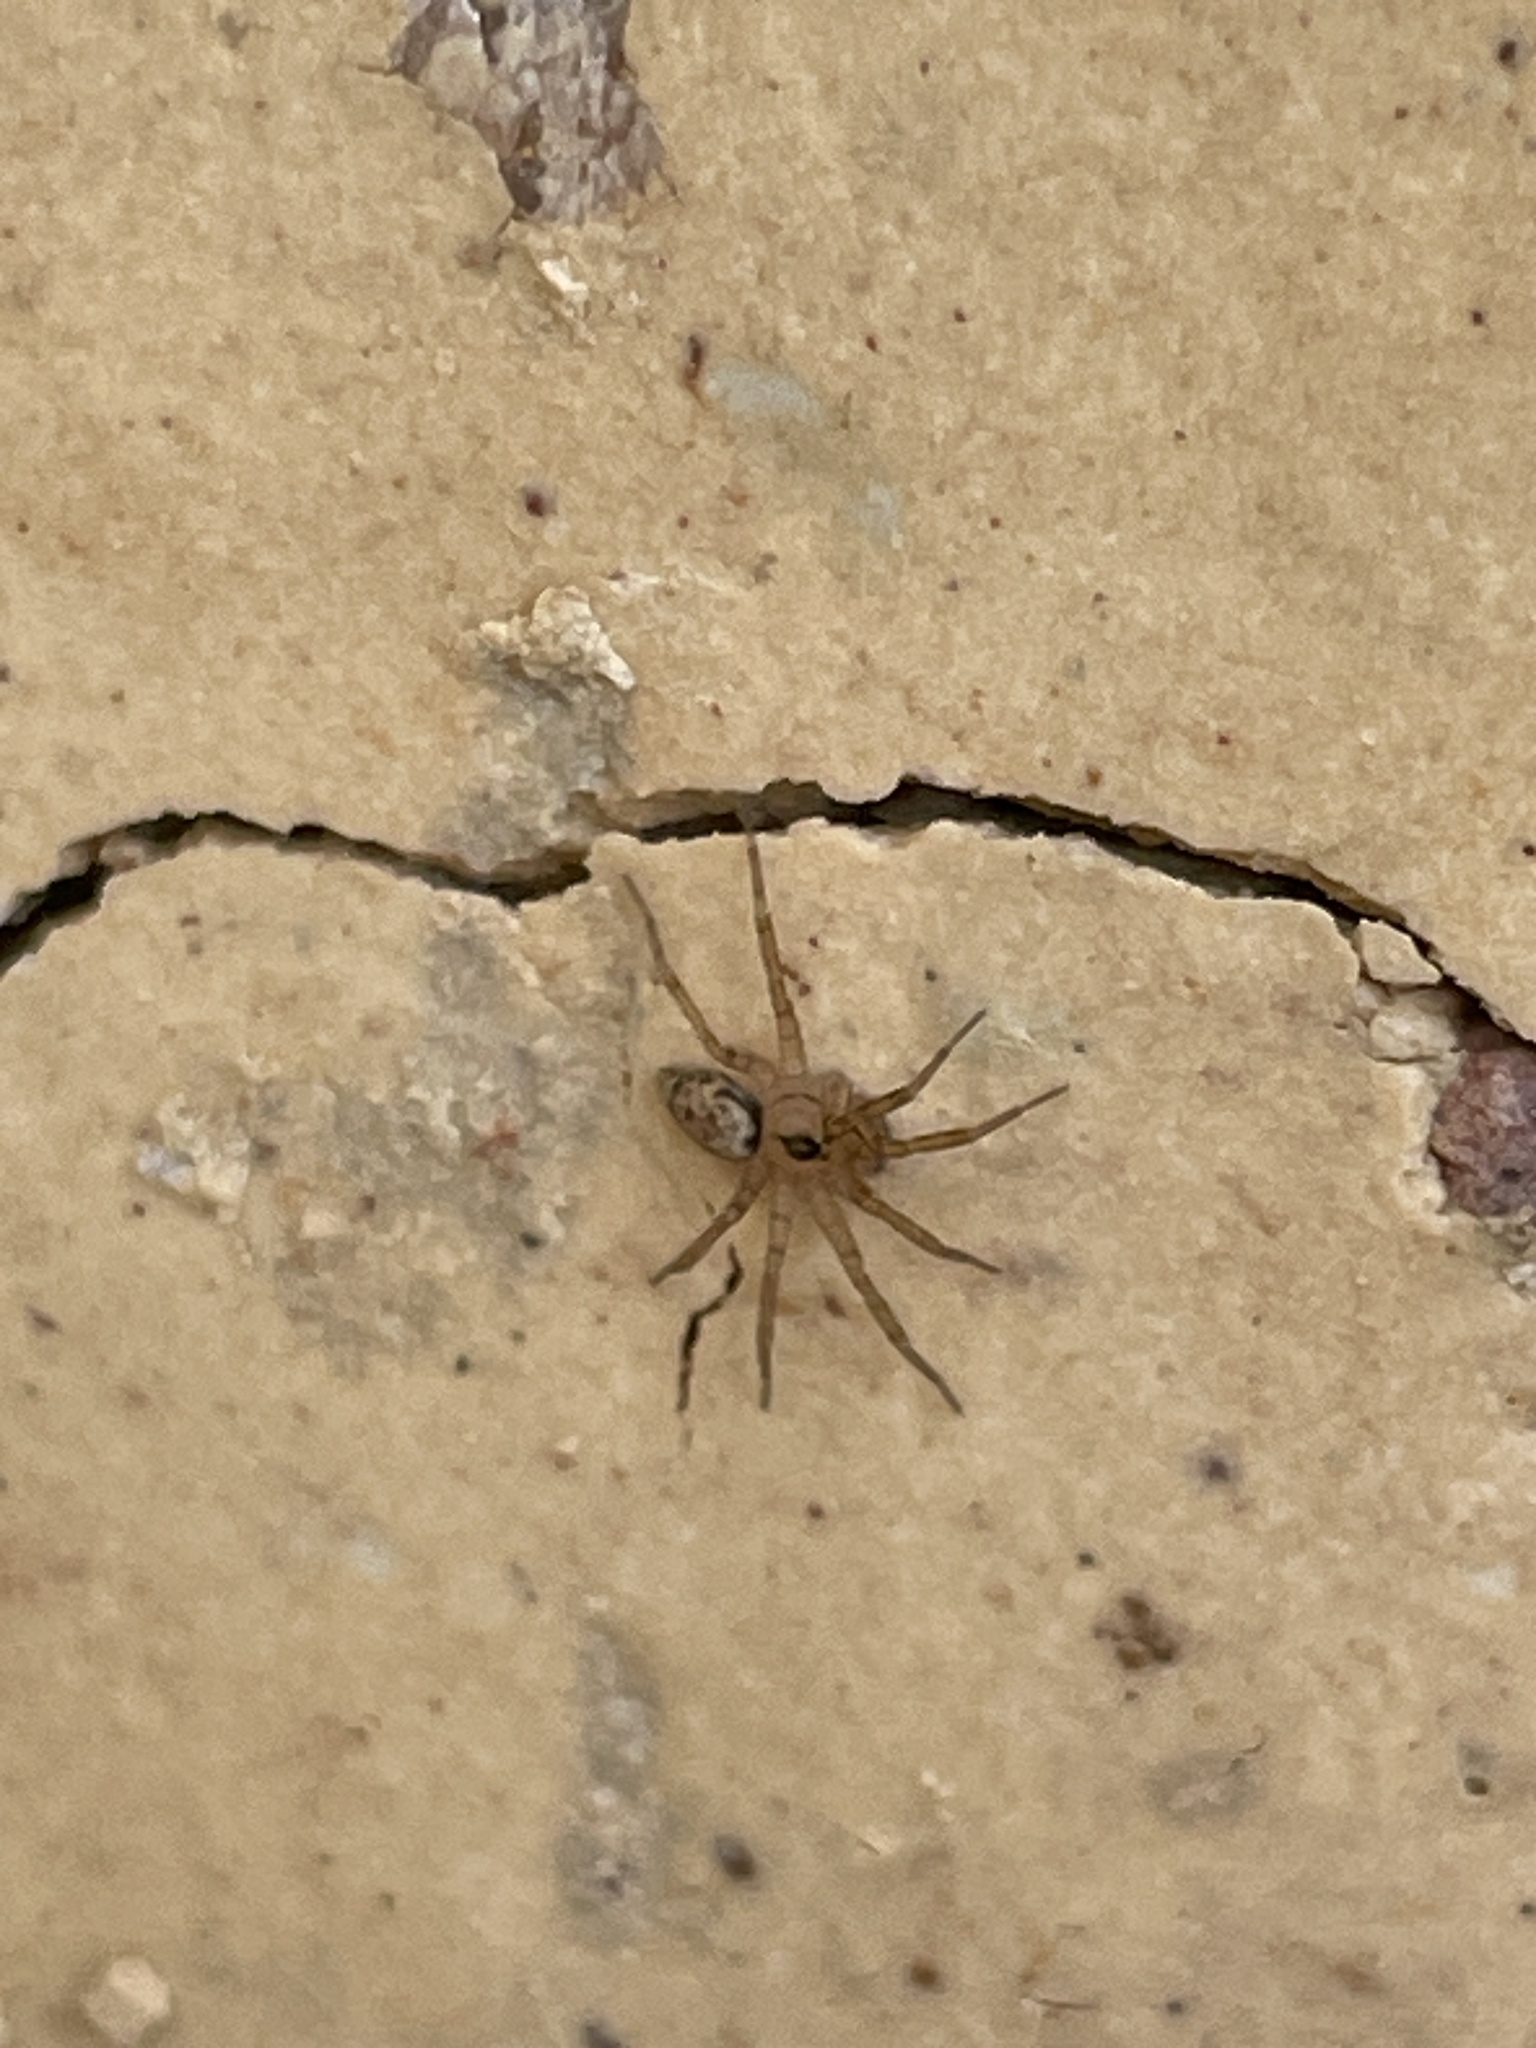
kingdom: Animalia
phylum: Arthropoda
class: Arachnida
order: Araneae
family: Oecobiidae
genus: Oecobius
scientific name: Oecobius navus
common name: Flatmesh weaver
